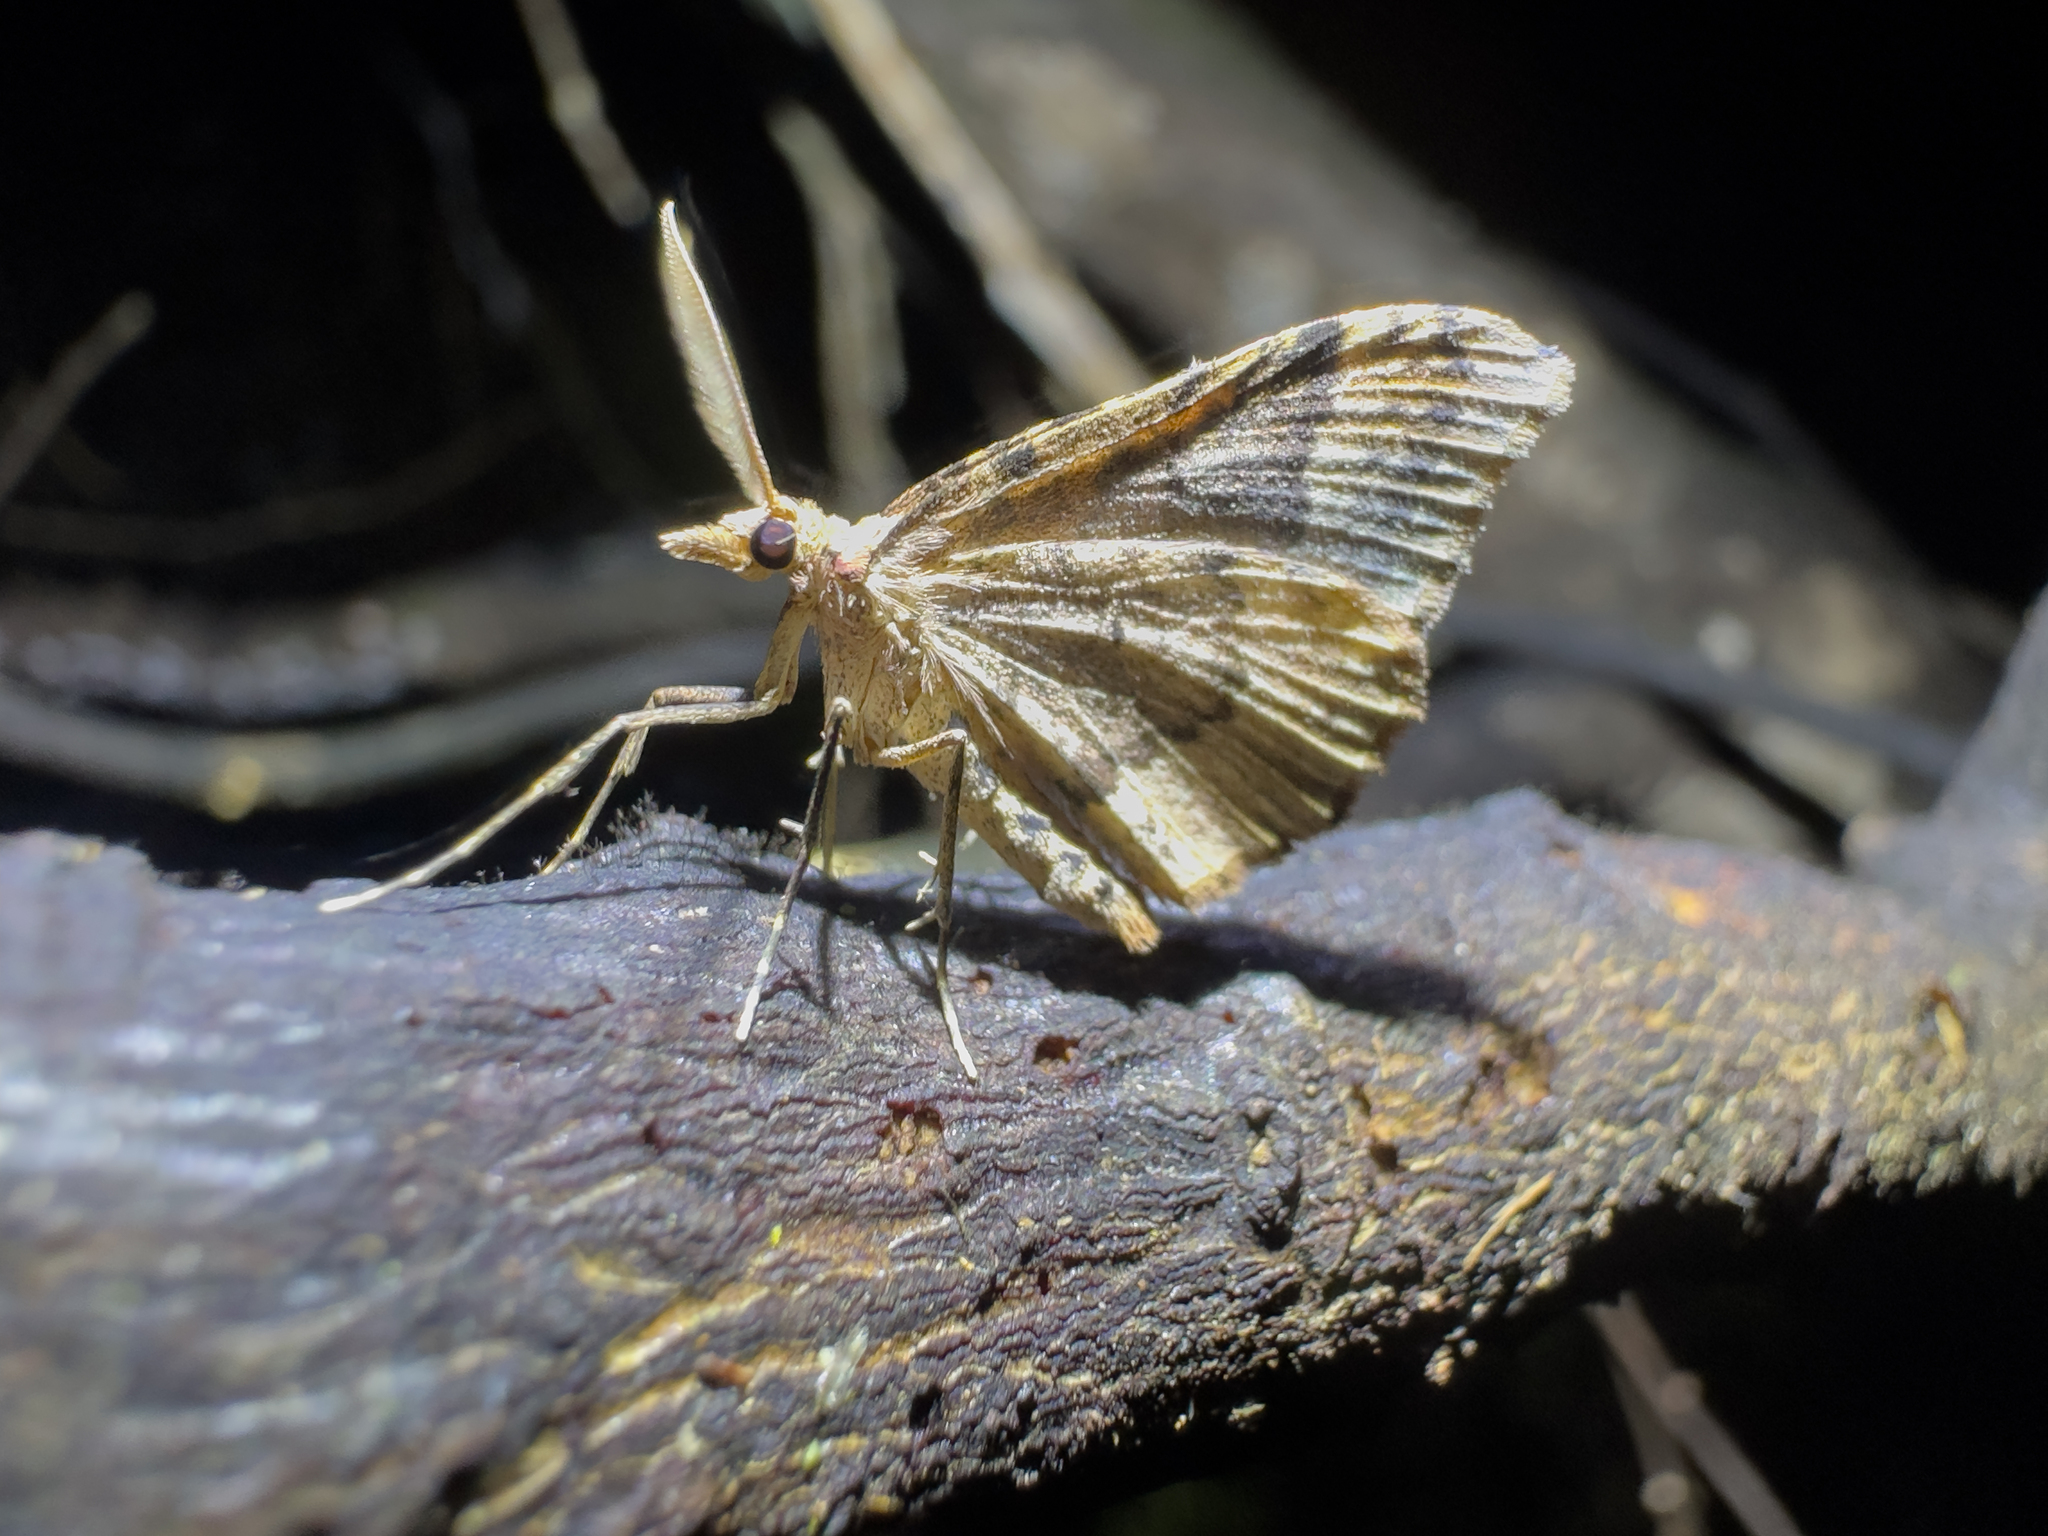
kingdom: Animalia
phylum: Arthropoda
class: Insecta
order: Lepidoptera
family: Geometridae
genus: Homodotis
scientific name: Homodotis falcata
